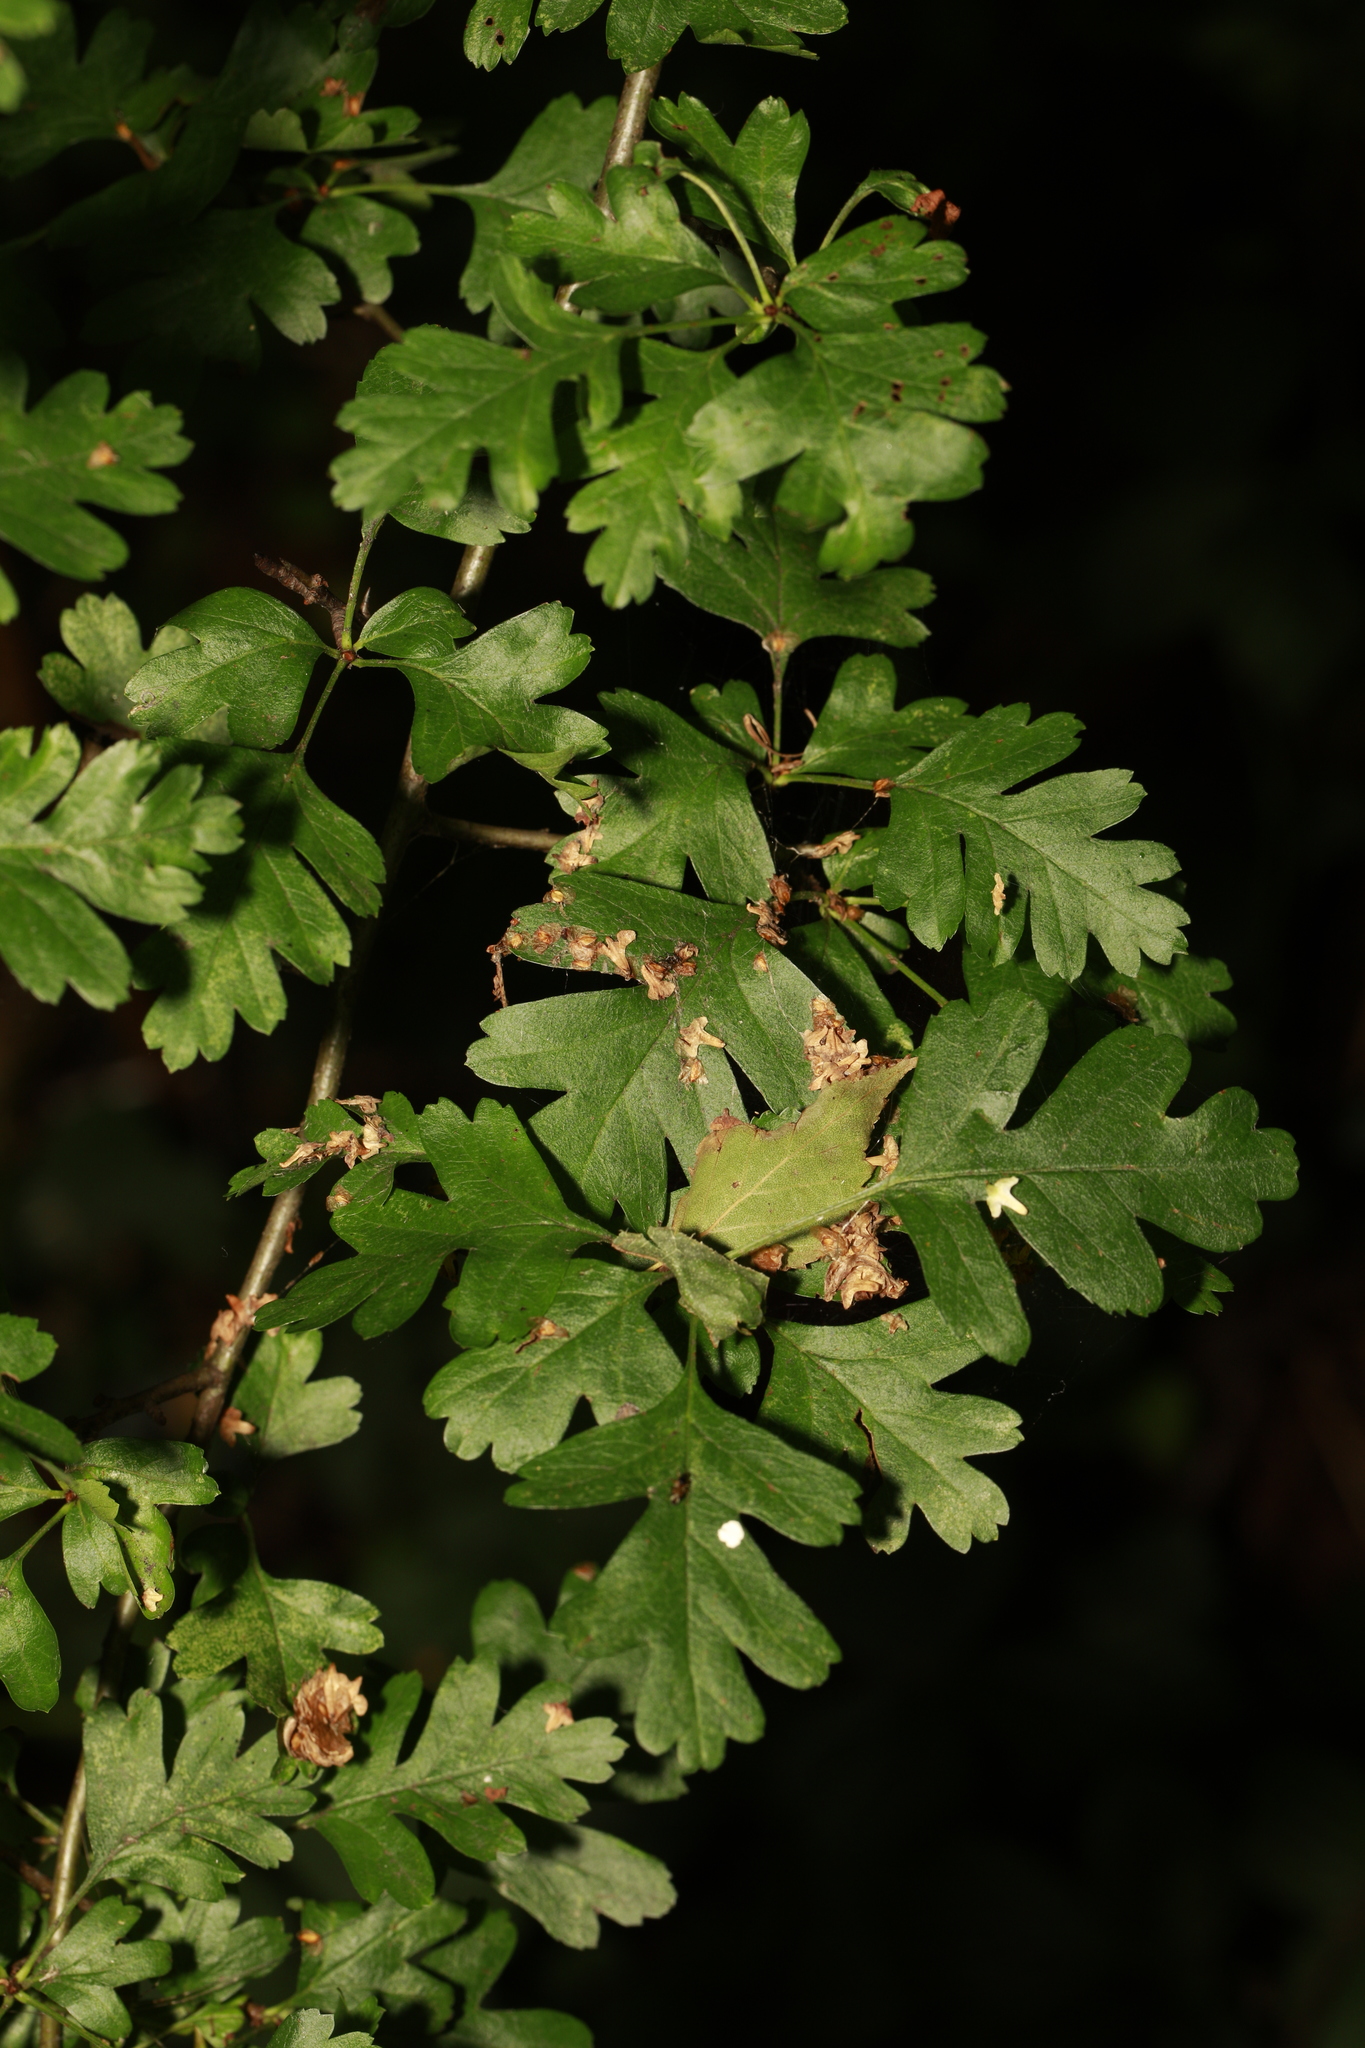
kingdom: Plantae
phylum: Tracheophyta
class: Magnoliopsida
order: Rosales
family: Rosaceae
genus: Crataegus
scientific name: Crataegus monogyna
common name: Hawthorn
